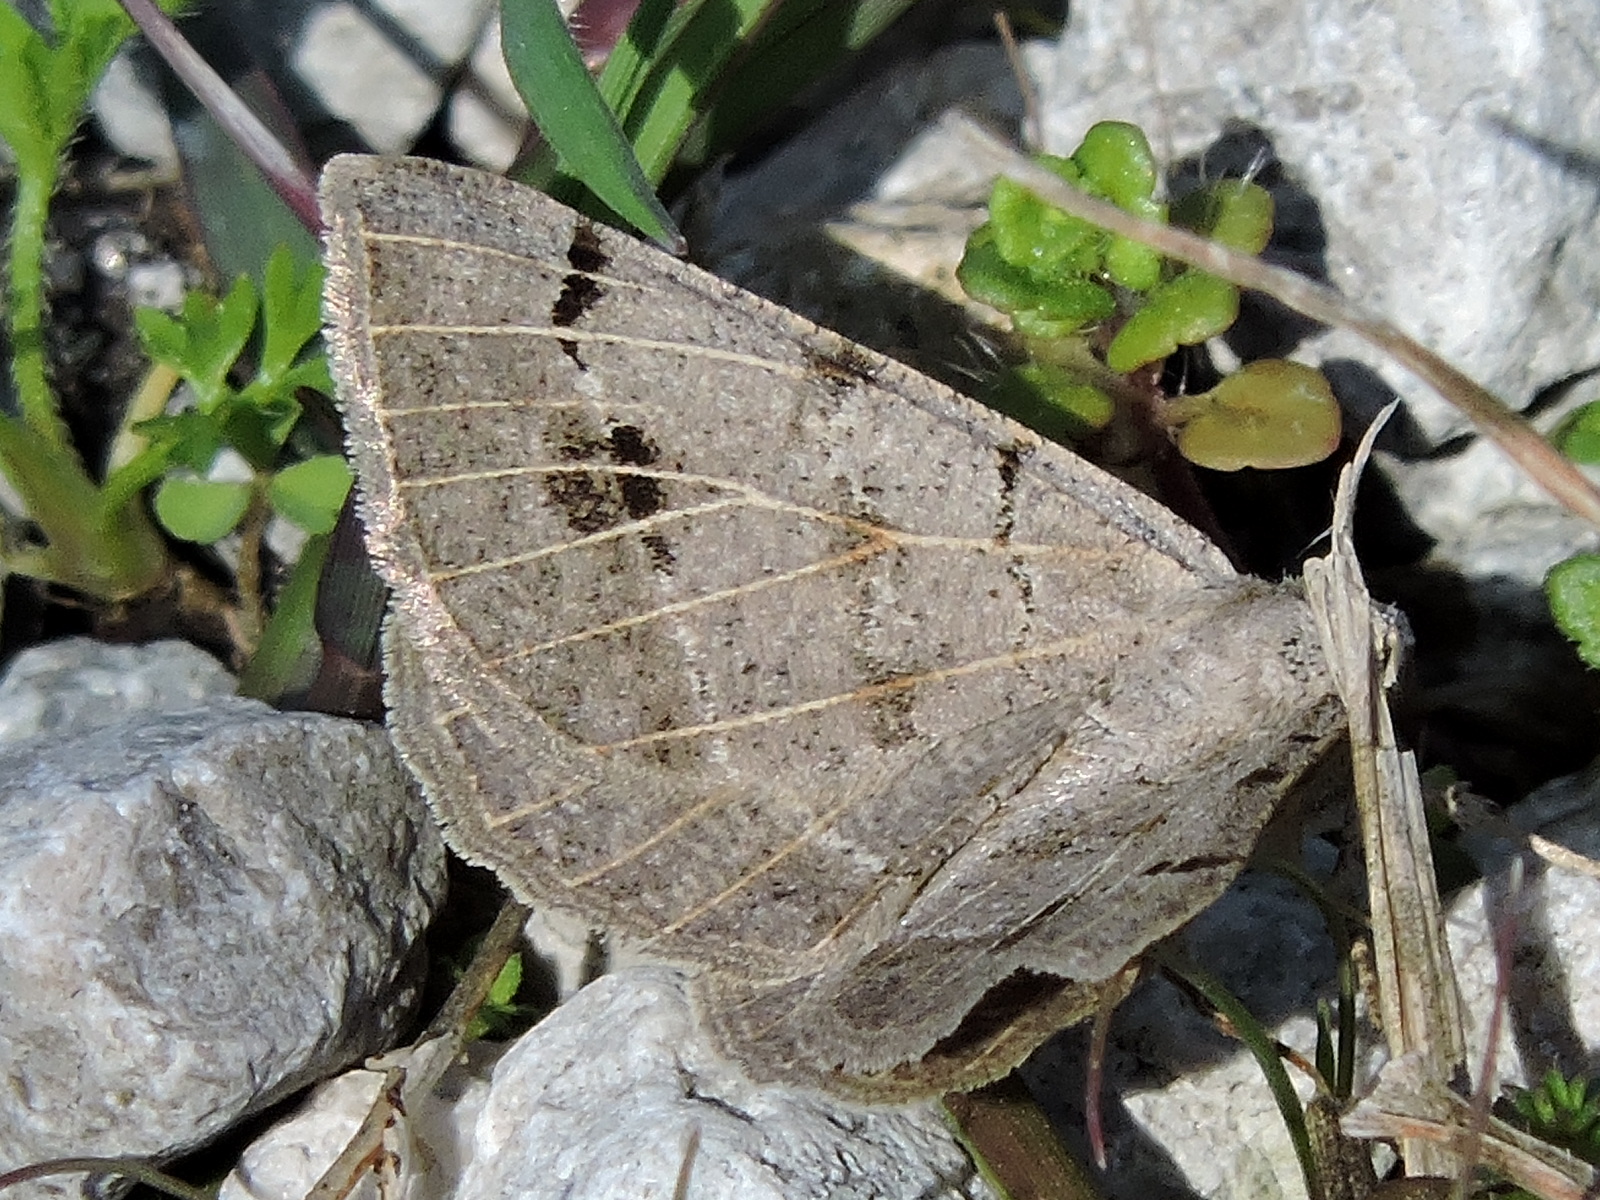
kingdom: Animalia
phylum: Arthropoda
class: Insecta
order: Lepidoptera
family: Geometridae
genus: Isturgia
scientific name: Isturgia dislocaria
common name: Pale-viened enconista
